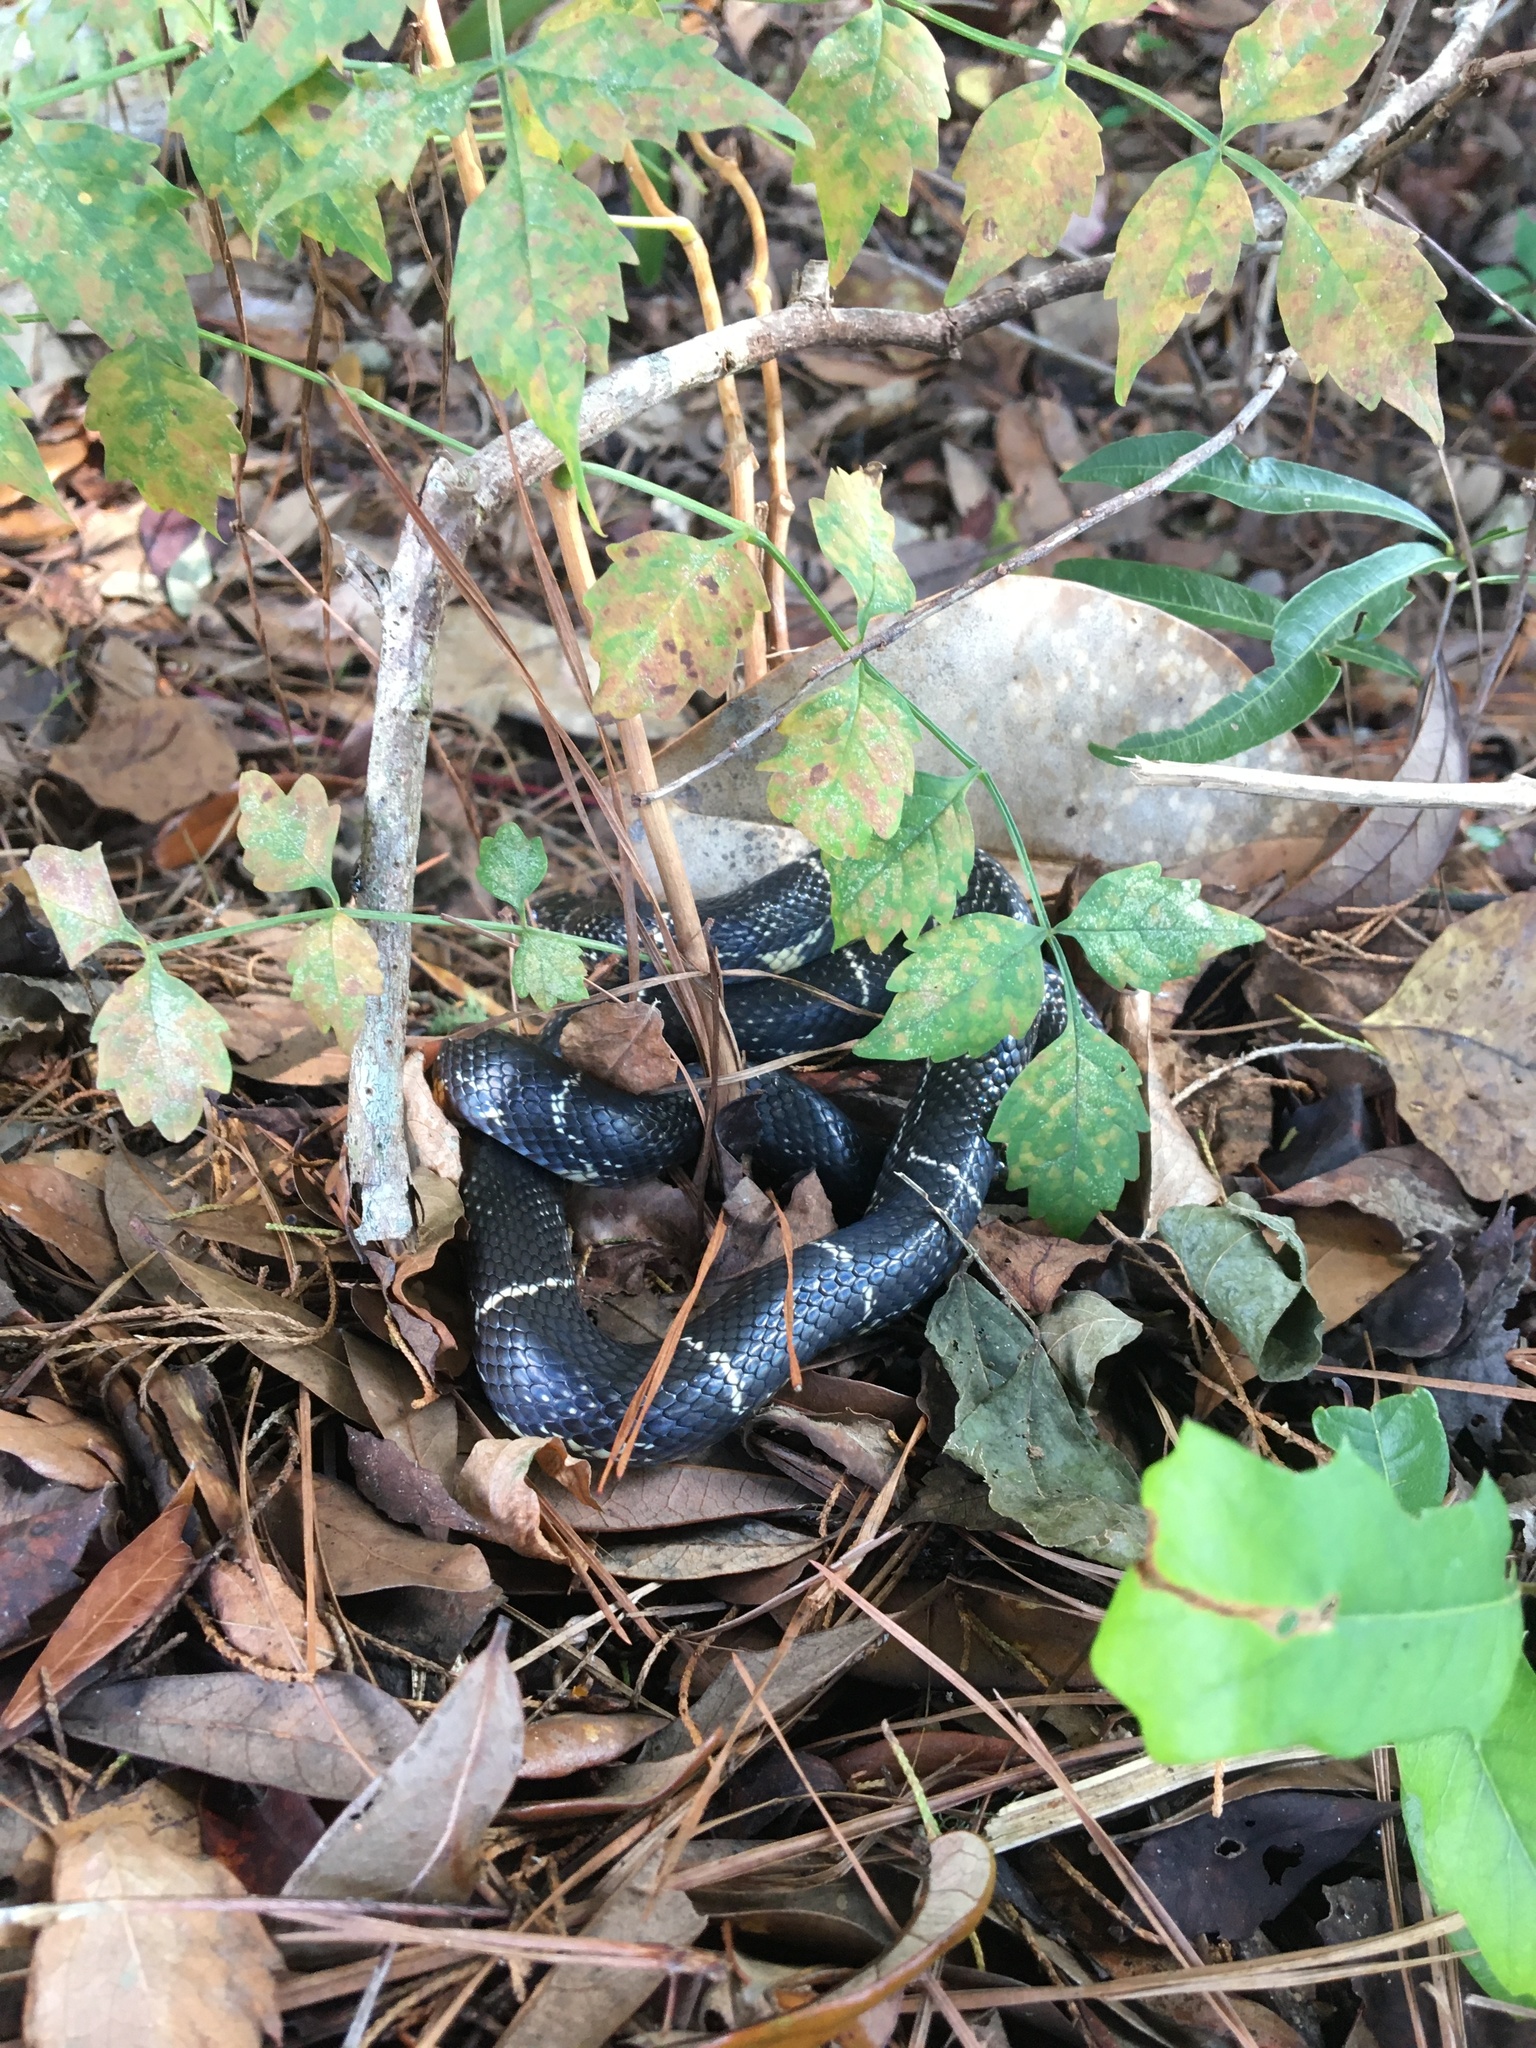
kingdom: Animalia
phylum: Chordata
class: Squamata
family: Colubridae
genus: Lampropeltis
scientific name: Lampropeltis getula
